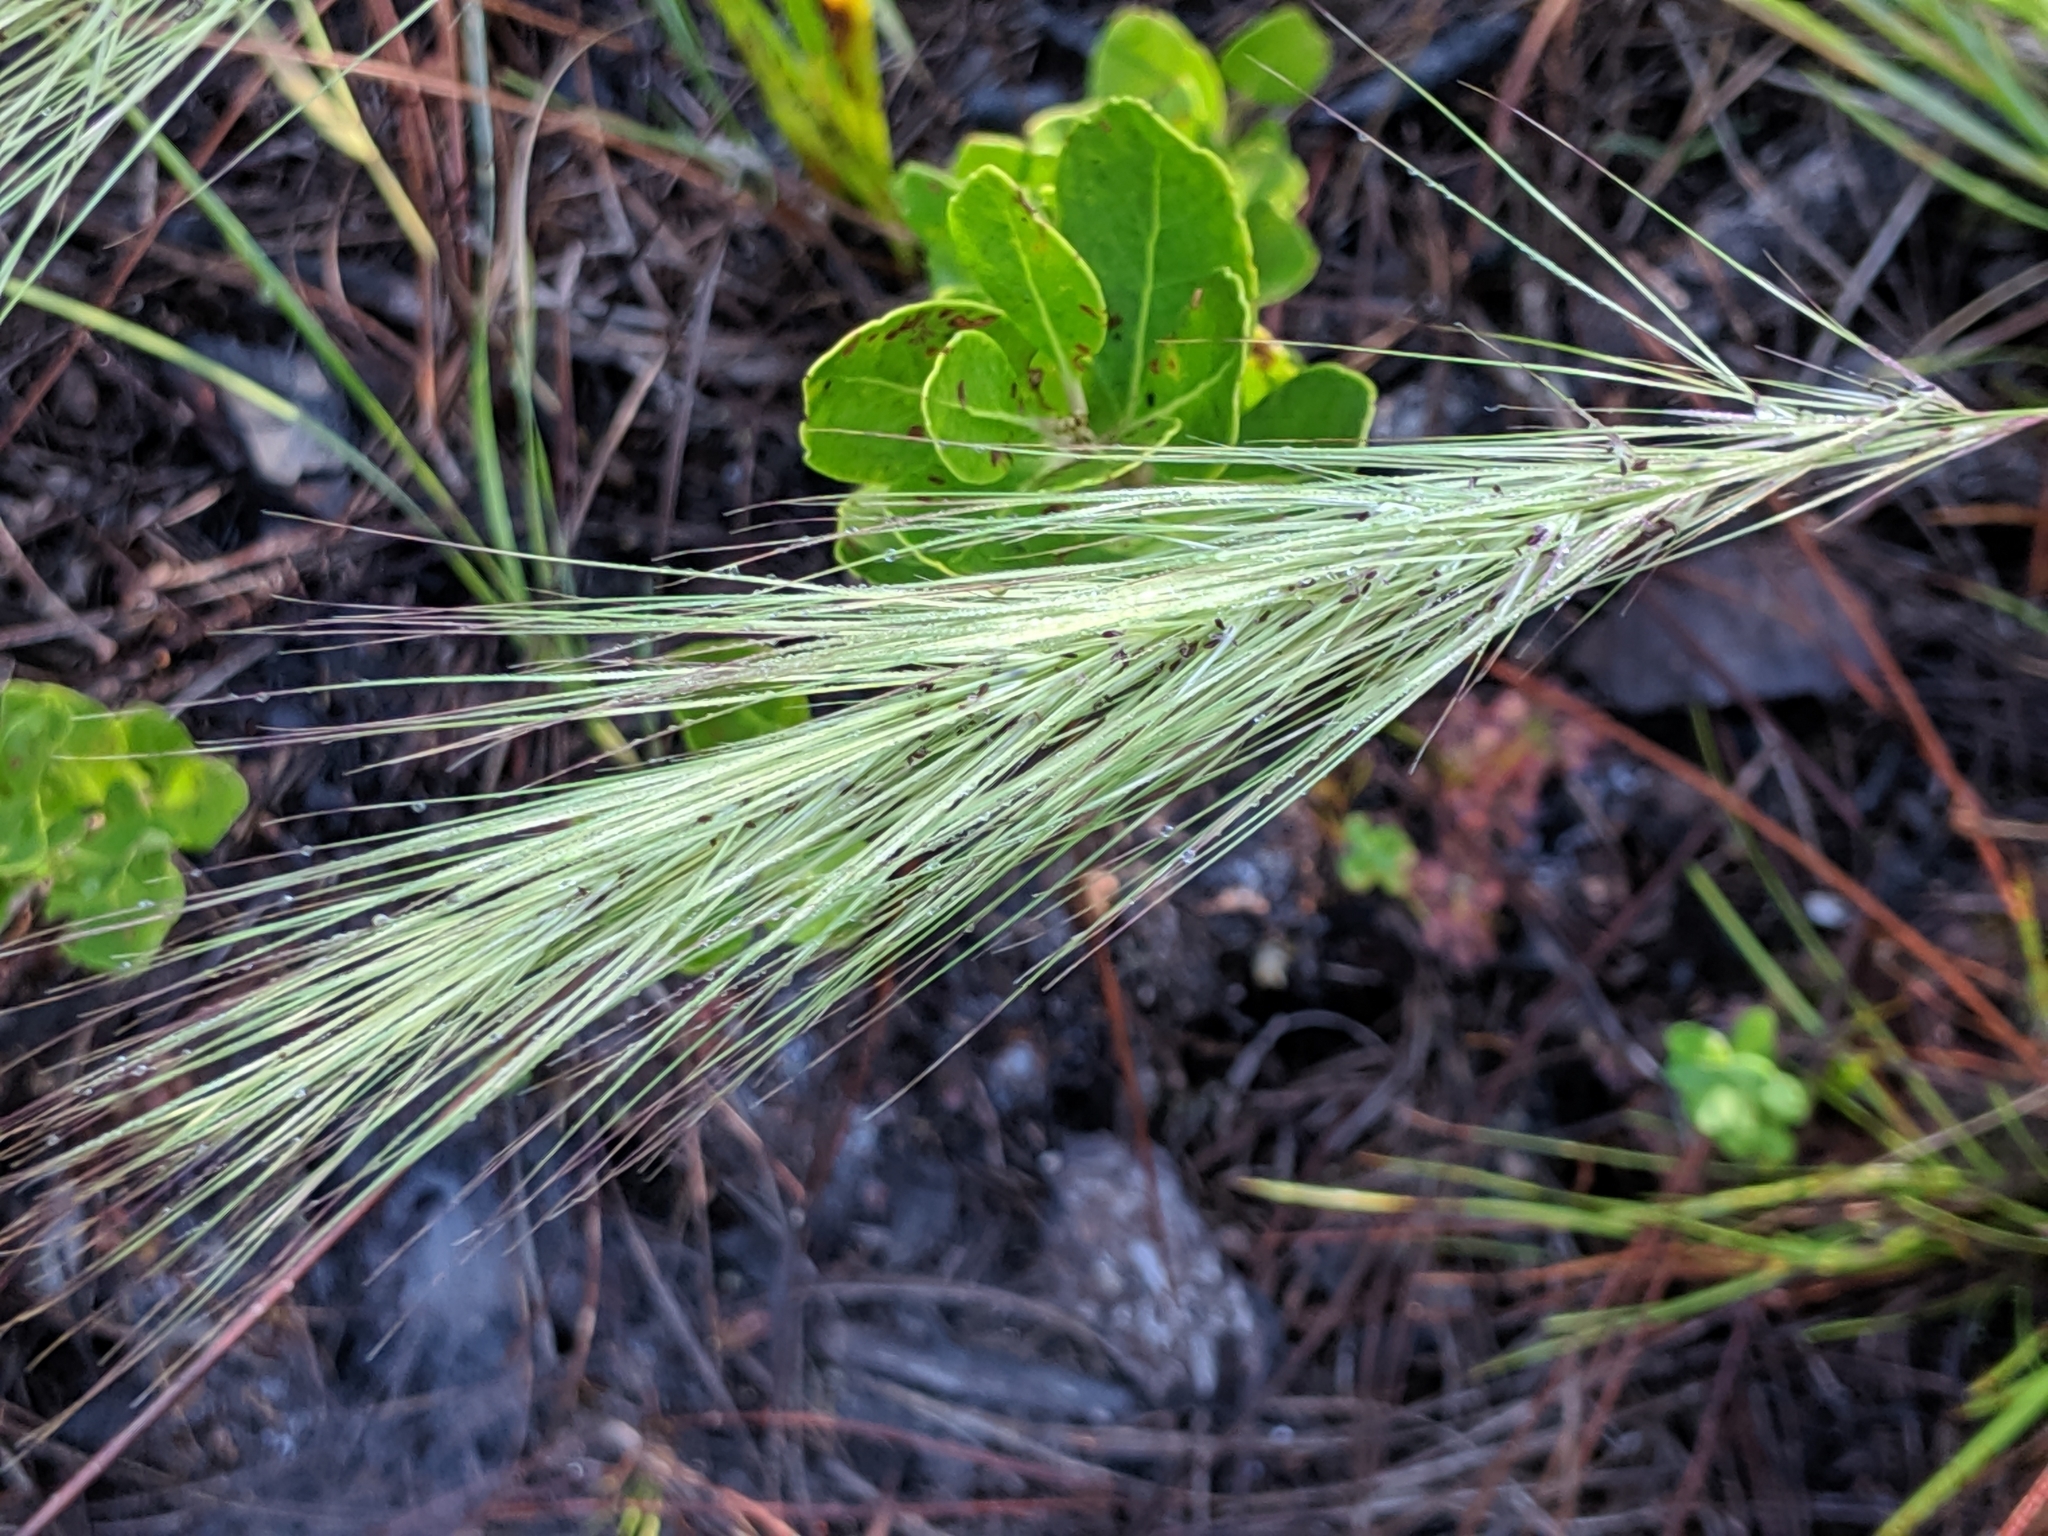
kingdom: Plantae
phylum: Tracheophyta
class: Liliopsida
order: Poales
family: Poaceae
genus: Aristida
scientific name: Aristida spiciformis
